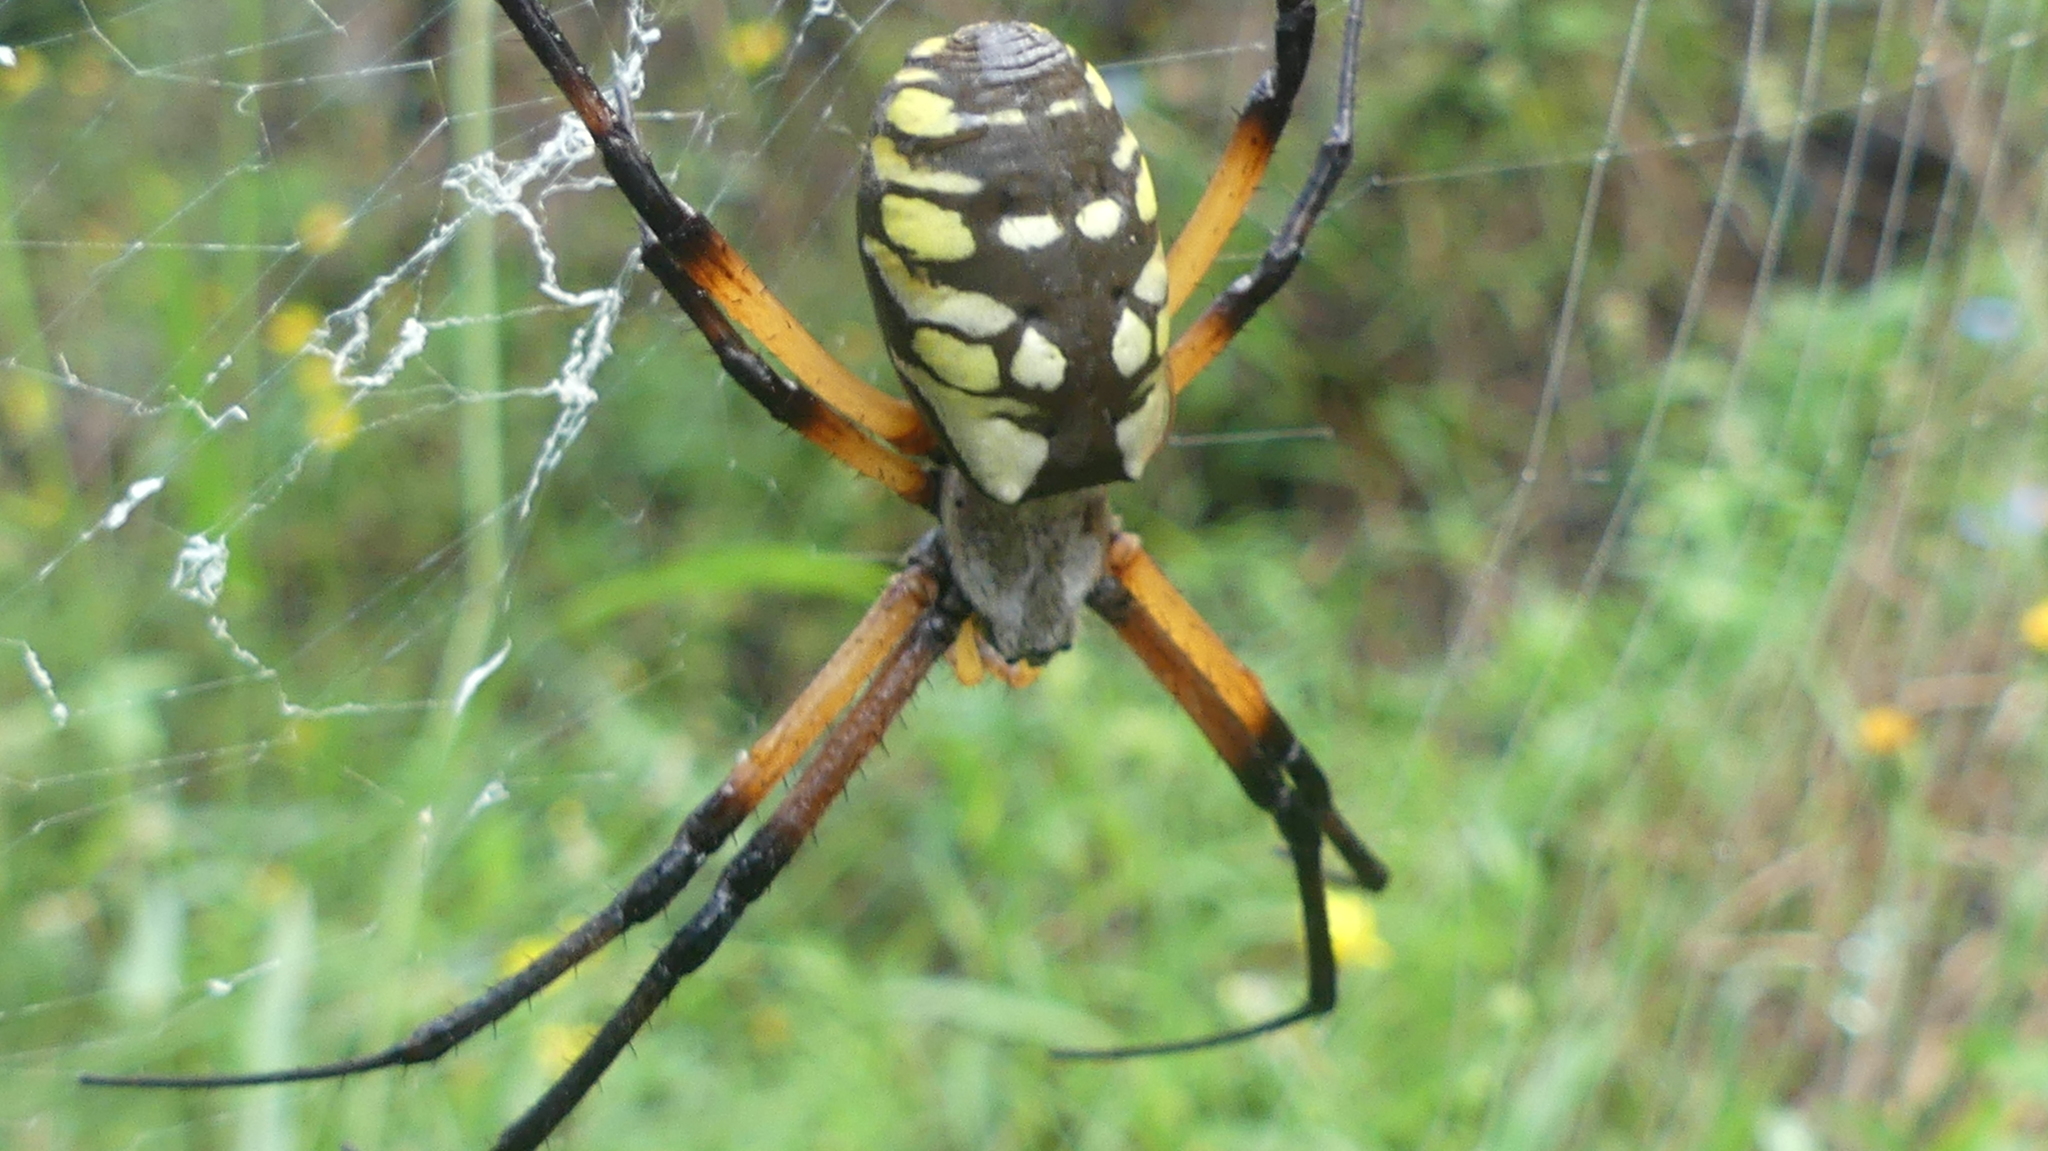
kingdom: Animalia
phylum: Arthropoda
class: Arachnida
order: Araneae
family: Araneidae
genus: Argiope
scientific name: Argiope aurantia
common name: Orb weavers
